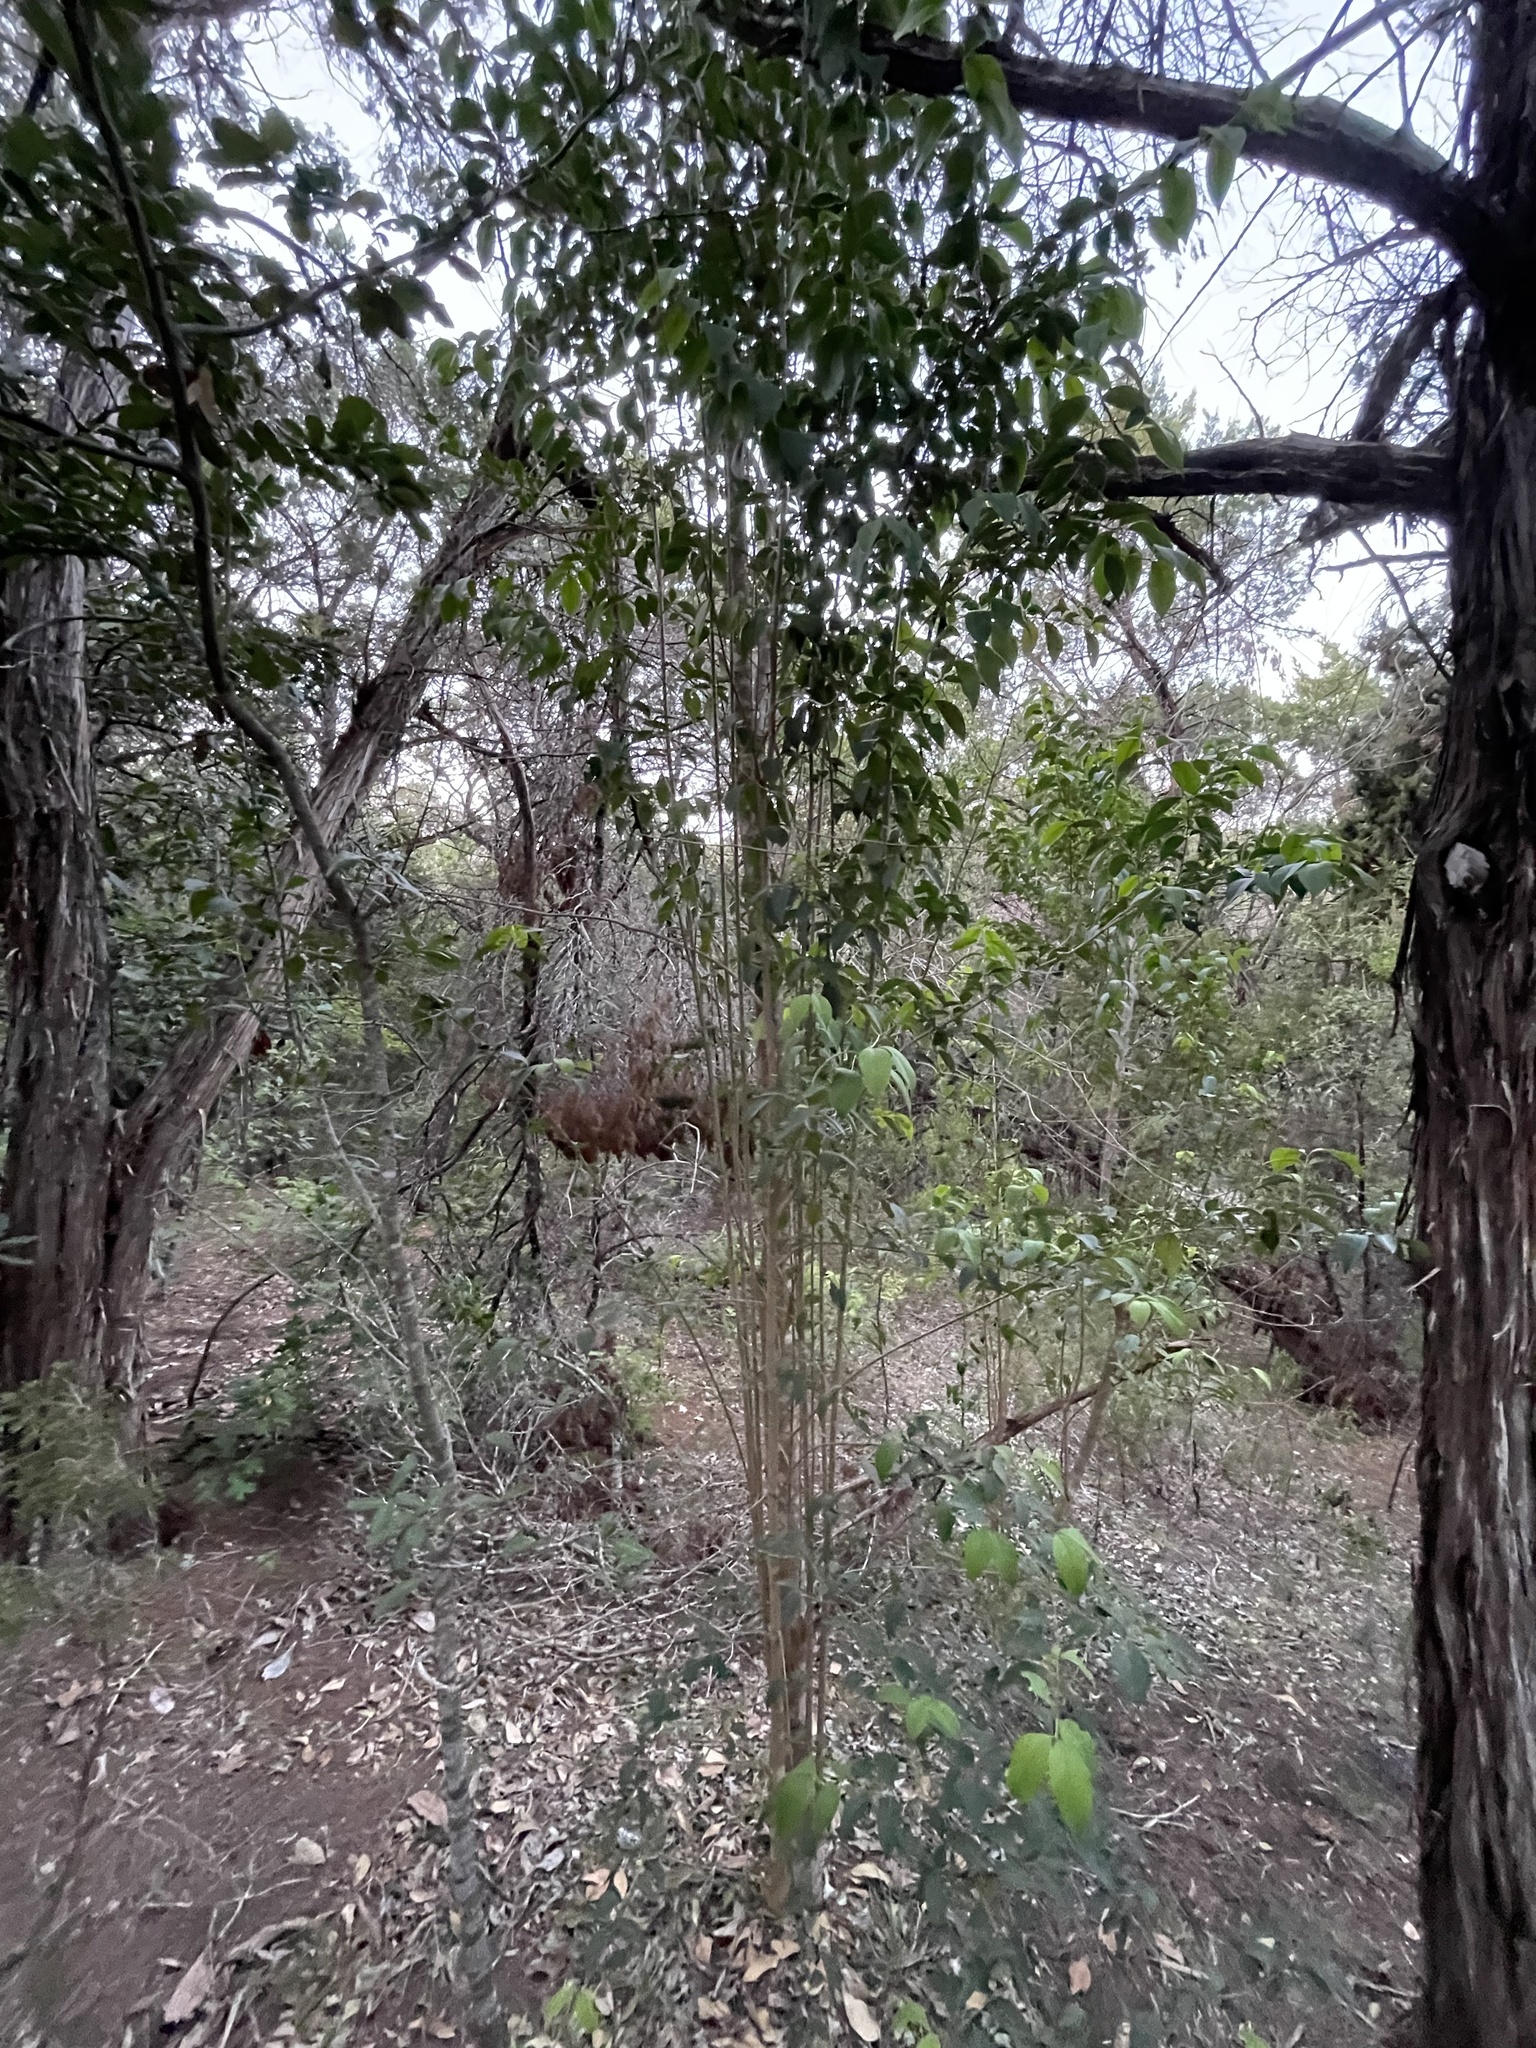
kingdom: Plantae
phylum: Tracheophyta
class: Magnoliopsida
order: Lamiales
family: Oleaceae
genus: Ligustrum
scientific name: Ligustrum lucidum
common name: Glossy privet
